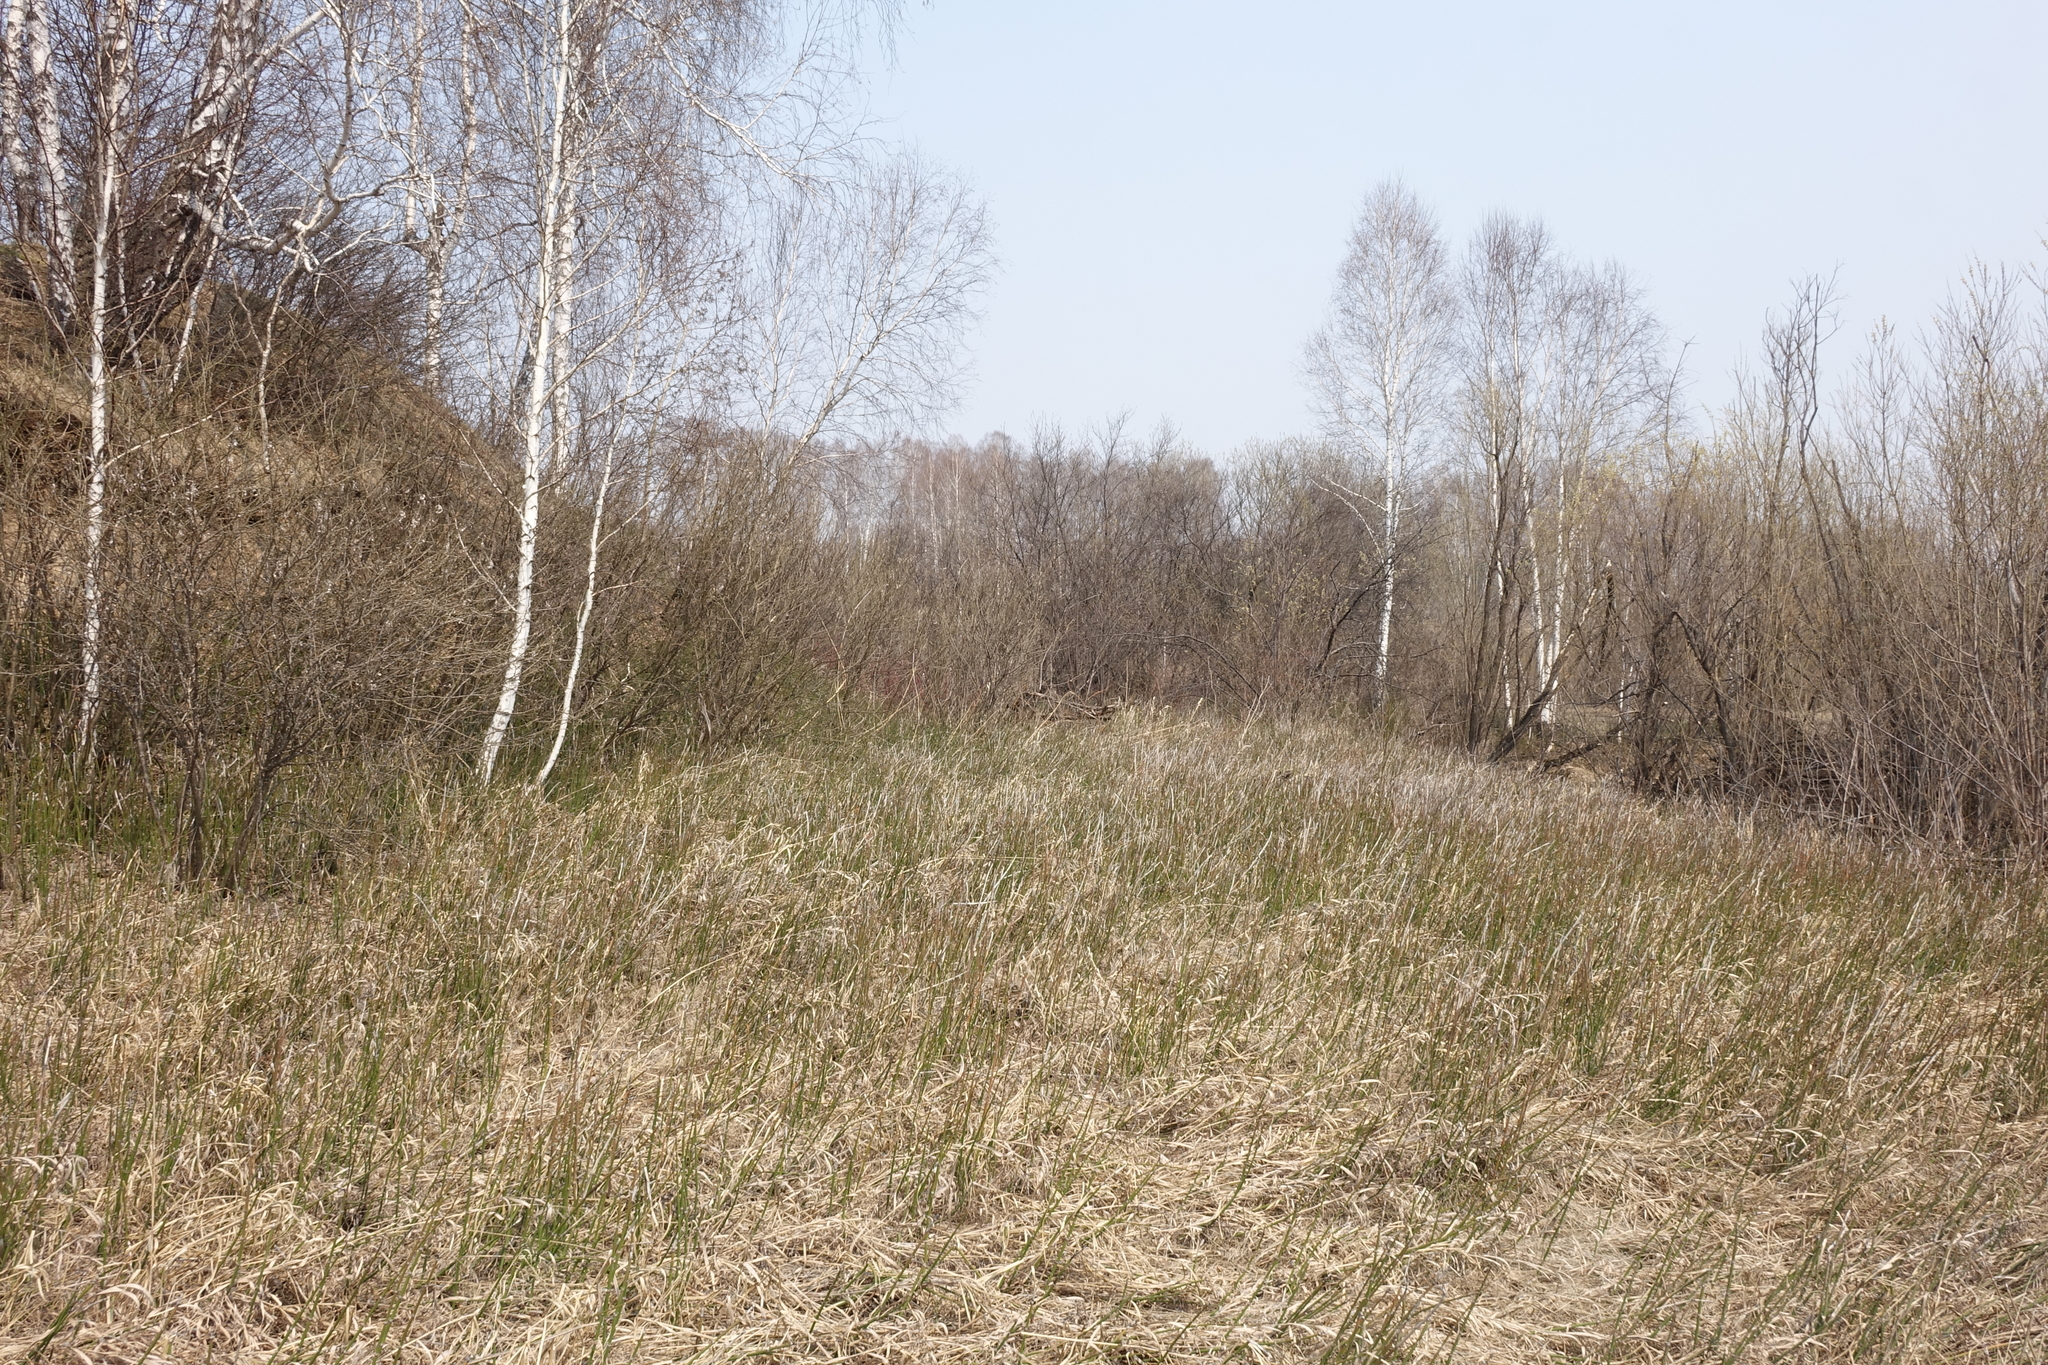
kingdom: Plantae
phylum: Tracheophyta
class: Magnoliopsida
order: Fagales
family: Betulaceae
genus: Betula
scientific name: Betula pendula
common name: Silver birch
